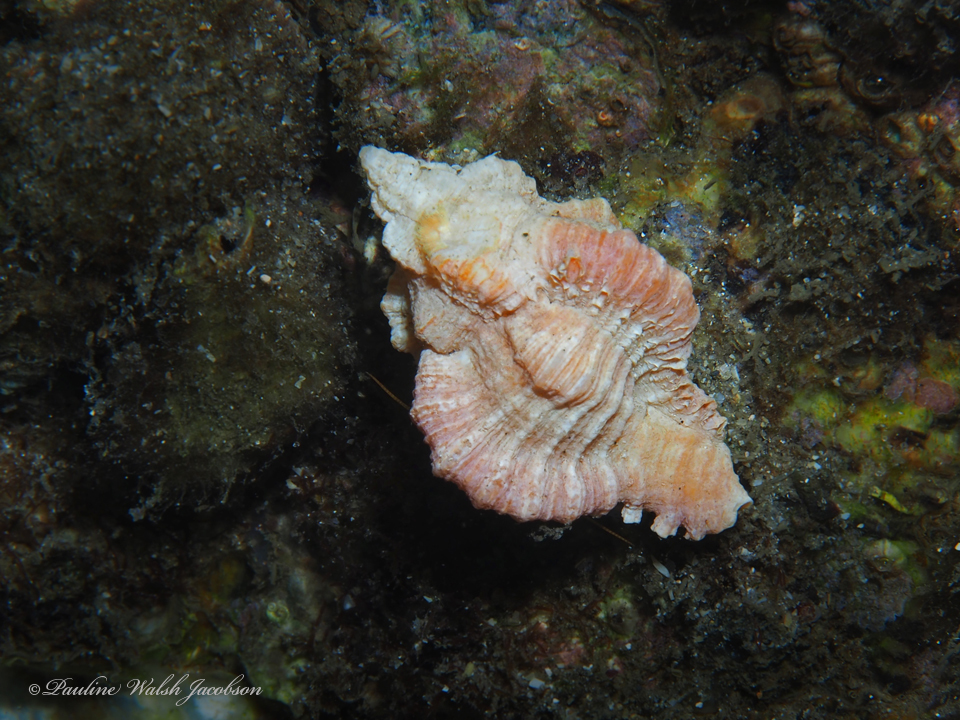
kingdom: Animalia
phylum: Mollusca
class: Gastropoda
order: Neogastropoda
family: Muricidae
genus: Phyllonotus
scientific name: Phyllonotus pomum
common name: Apple murex
